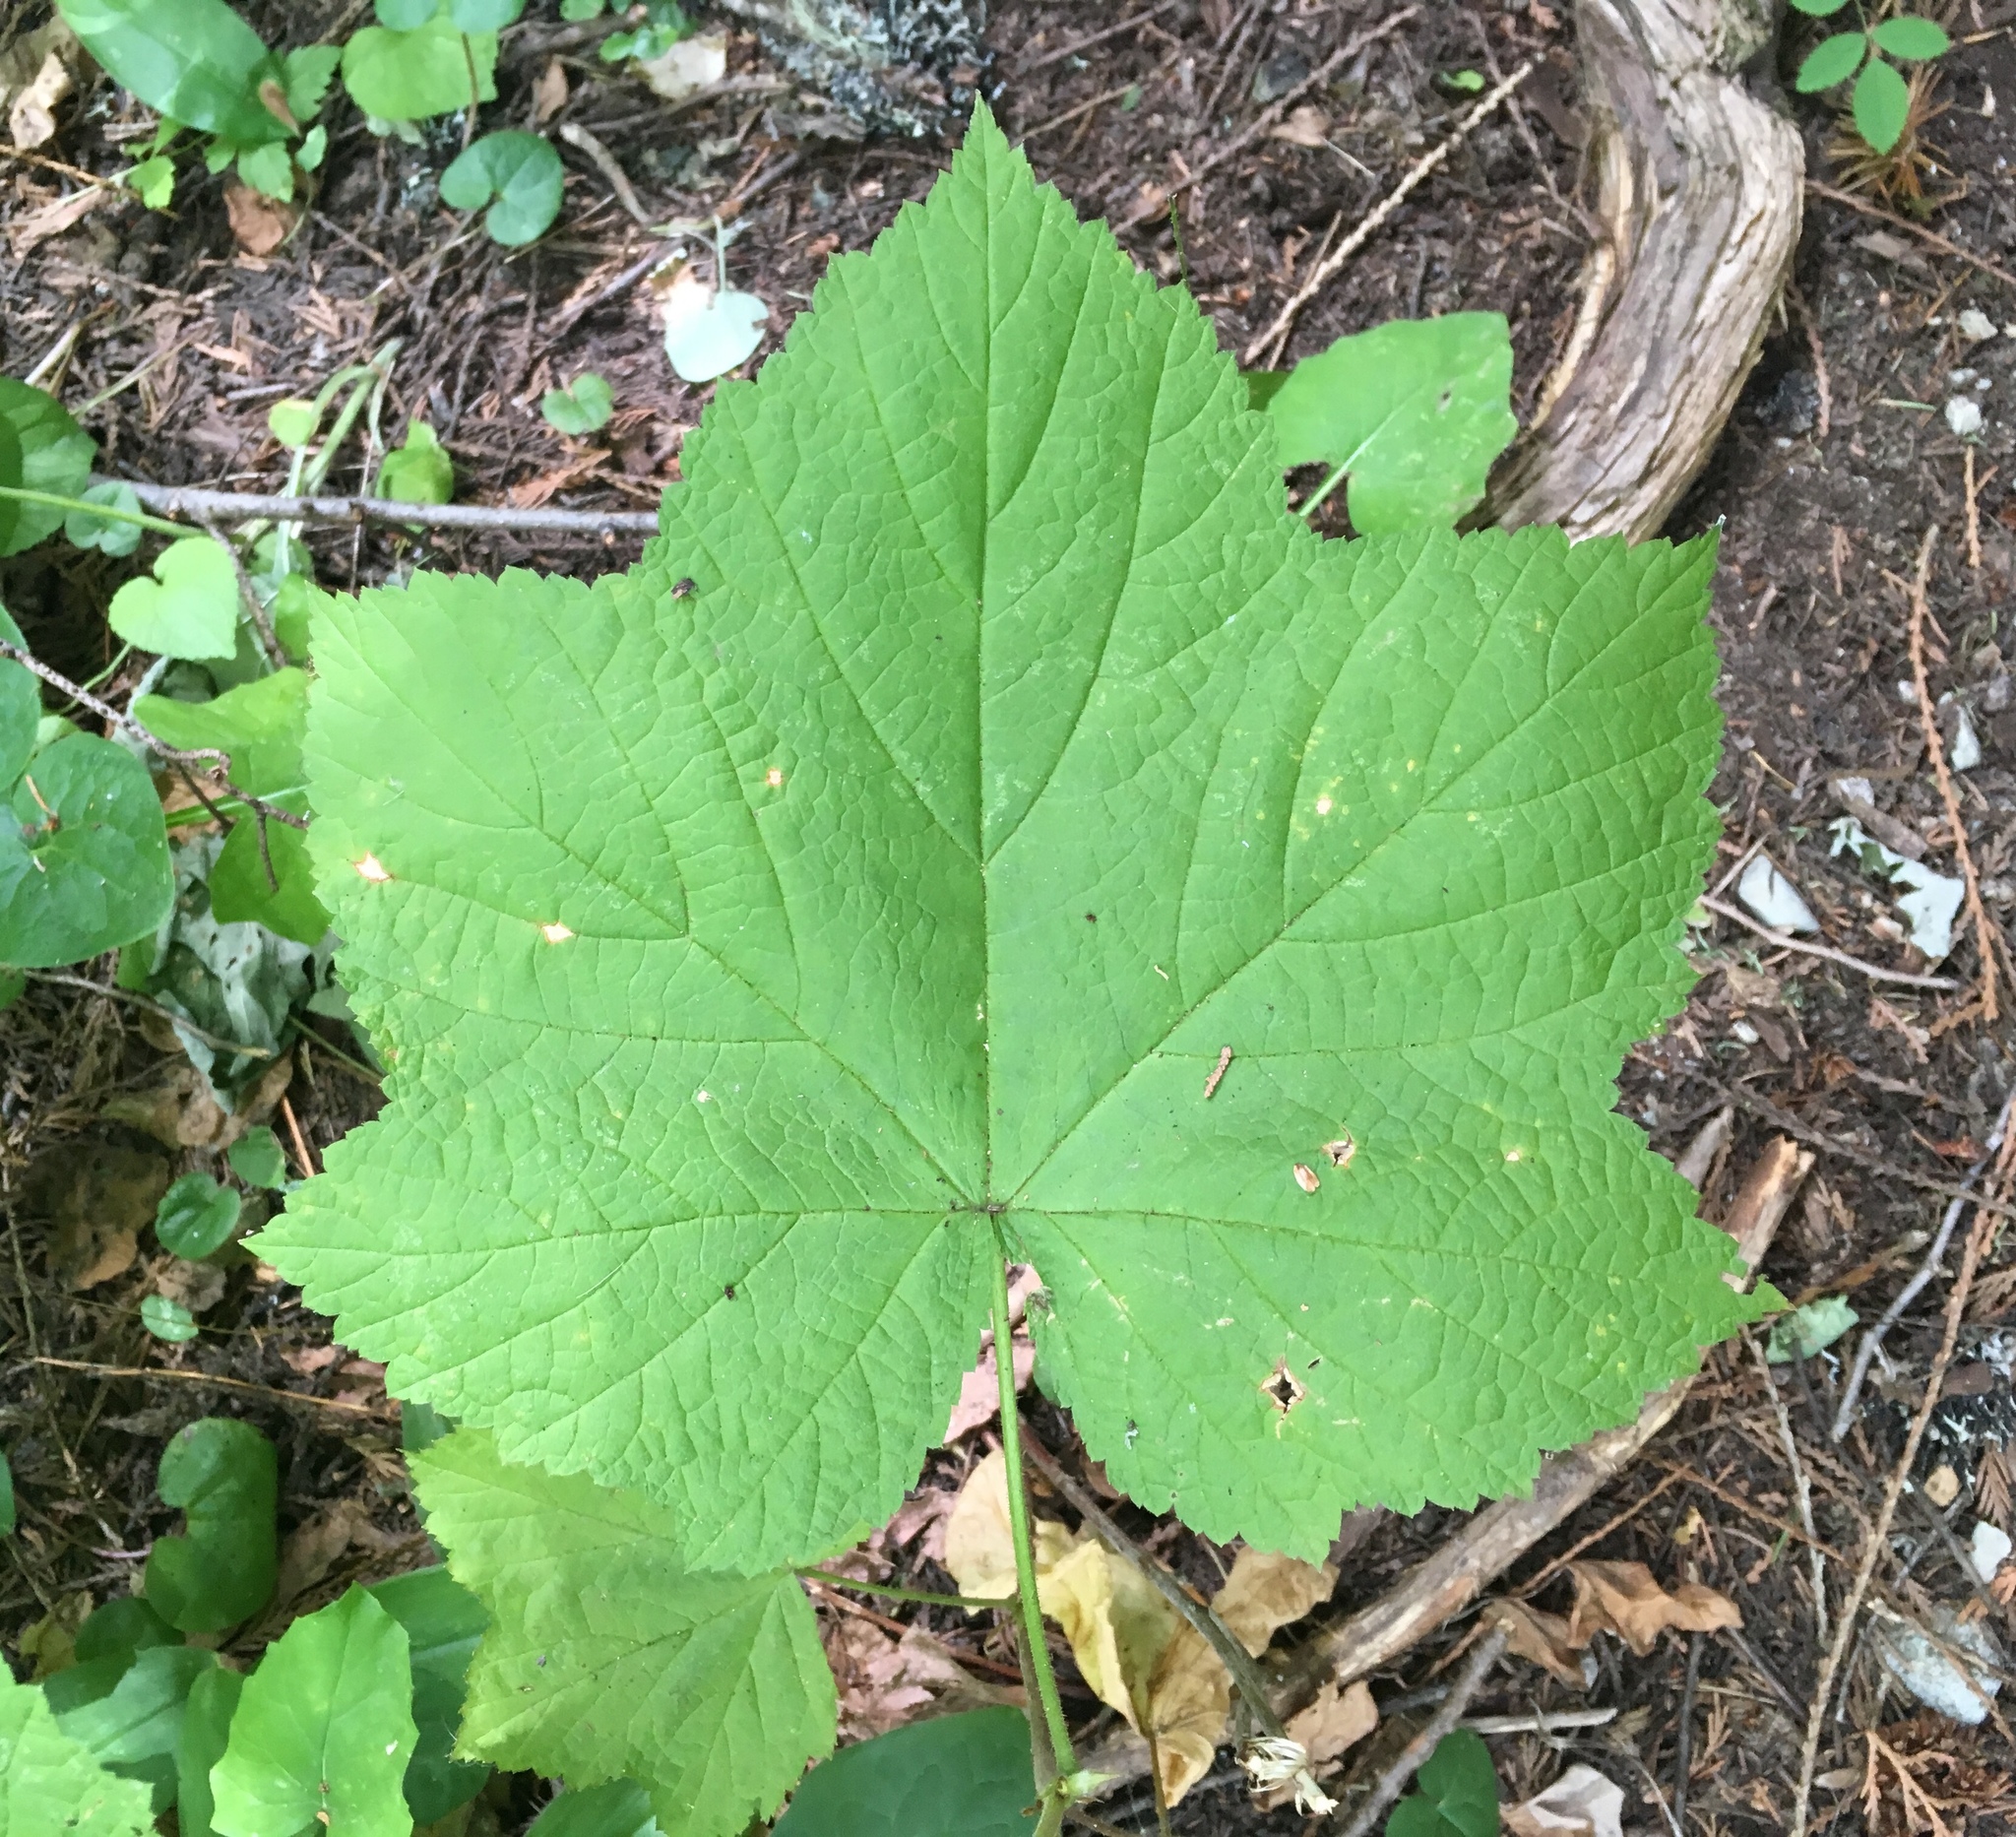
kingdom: Plantae
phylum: Tracheophyta
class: Magnoliopsida
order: Rosales
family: Rosaceae
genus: Rubus
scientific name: Rubus parviflorus
